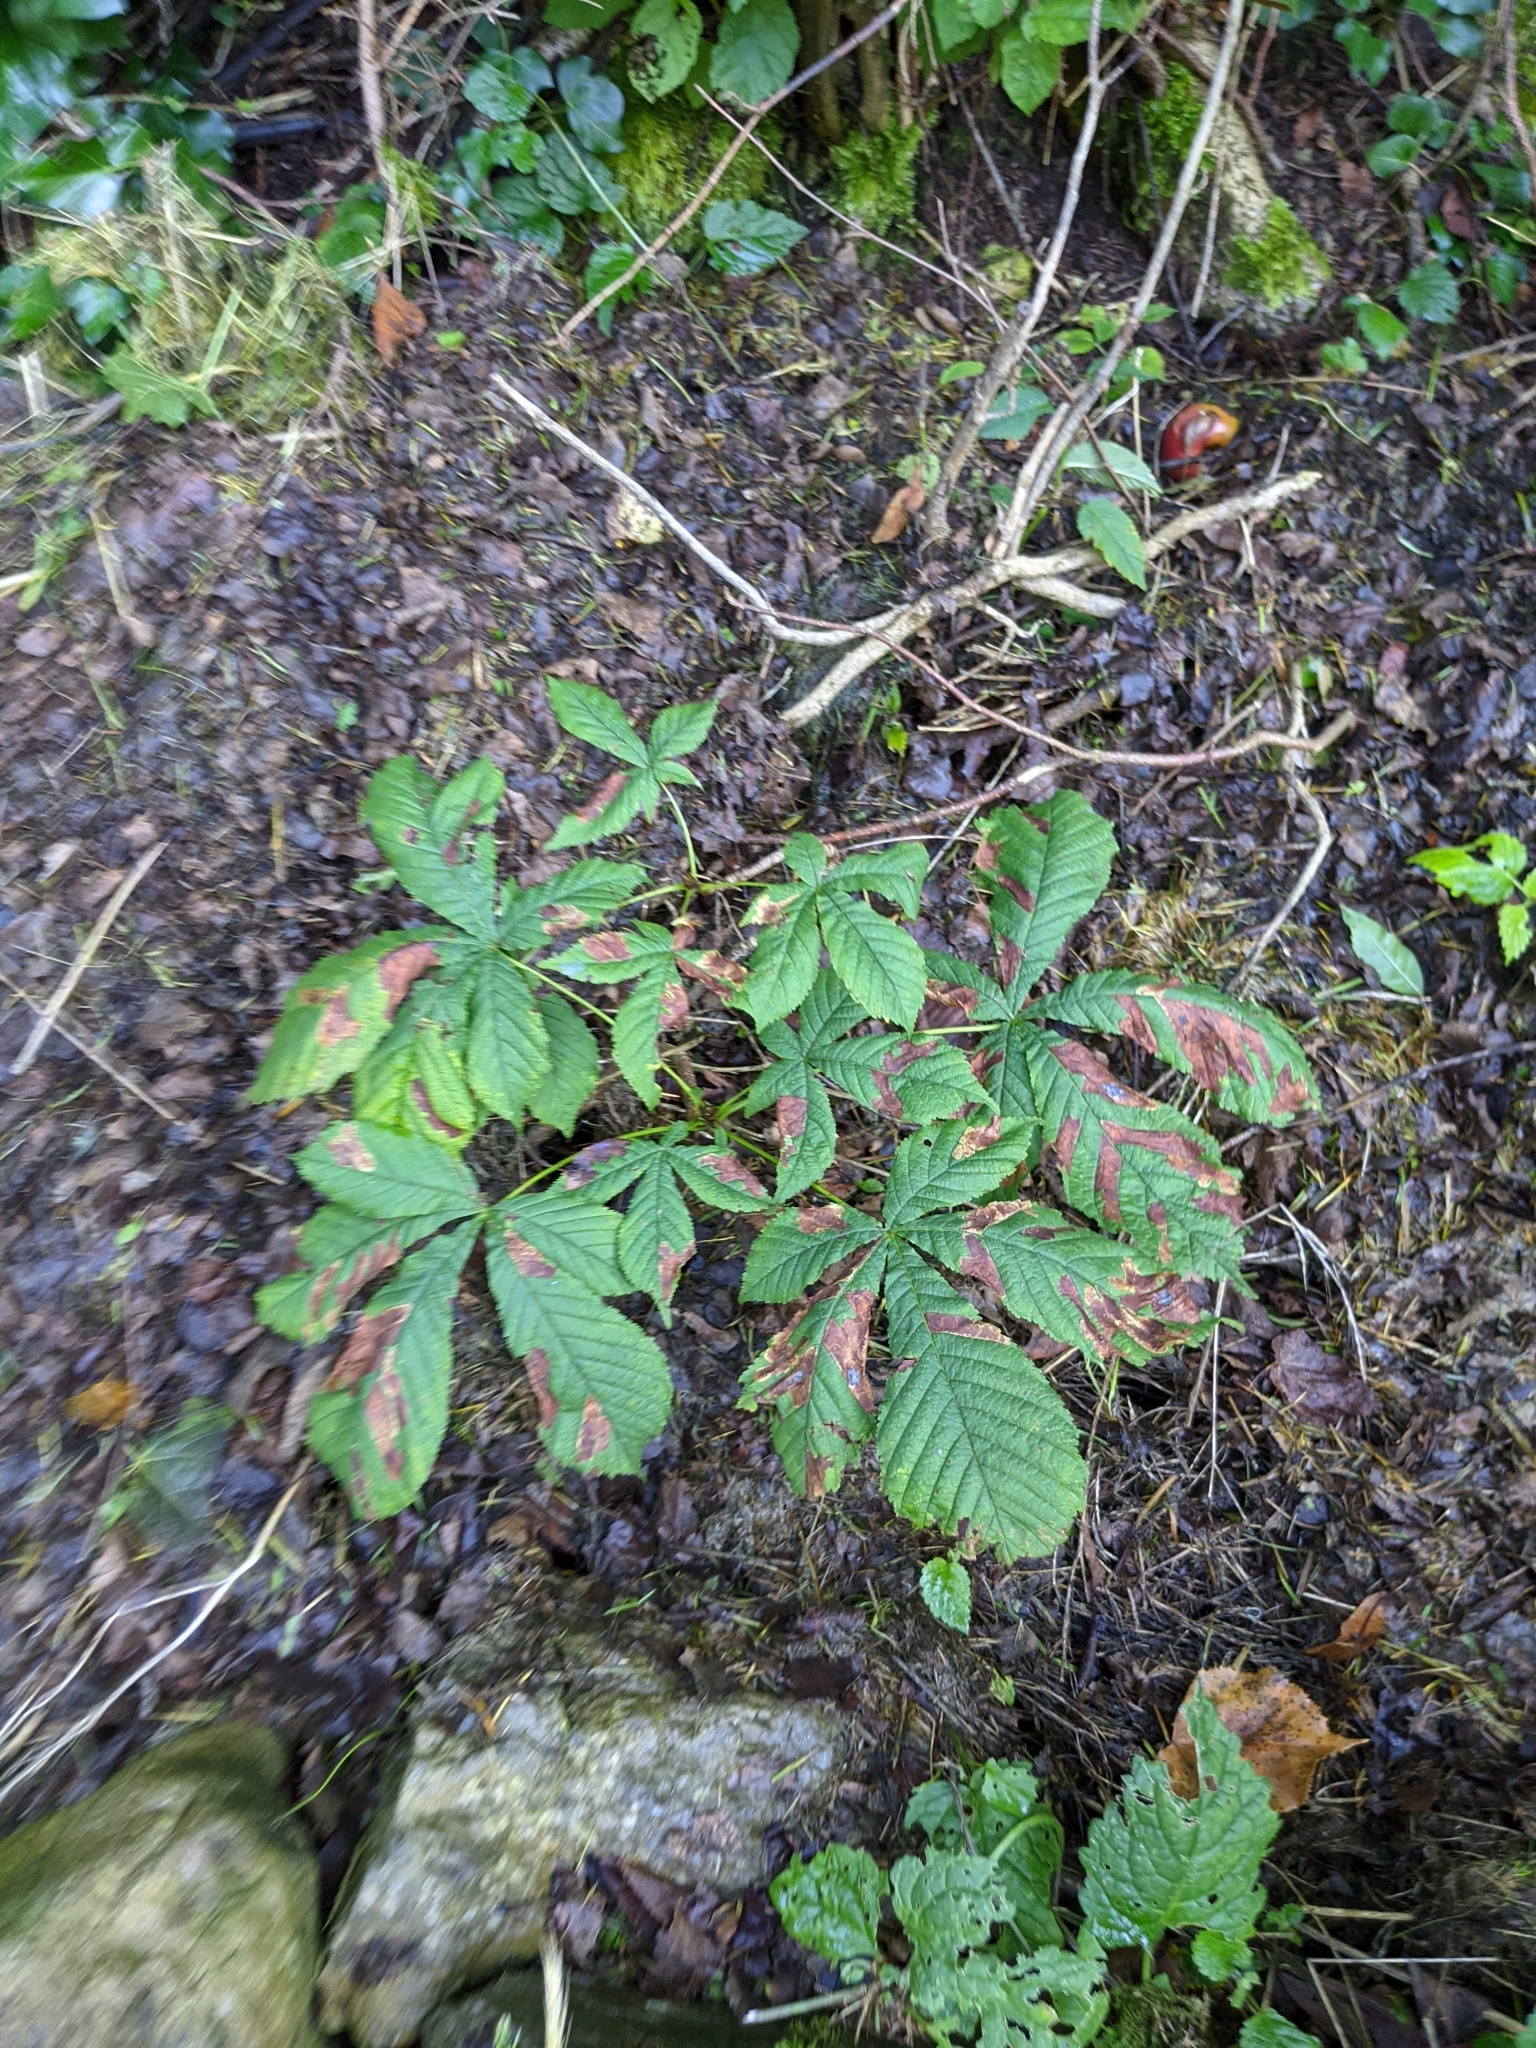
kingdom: Plantae
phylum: Tracheophyta
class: Magnoliopsida
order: Sapindales
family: Sapindaceae
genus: Aesculus
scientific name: Aesculus hippocastanum
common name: Horse-chestnut
